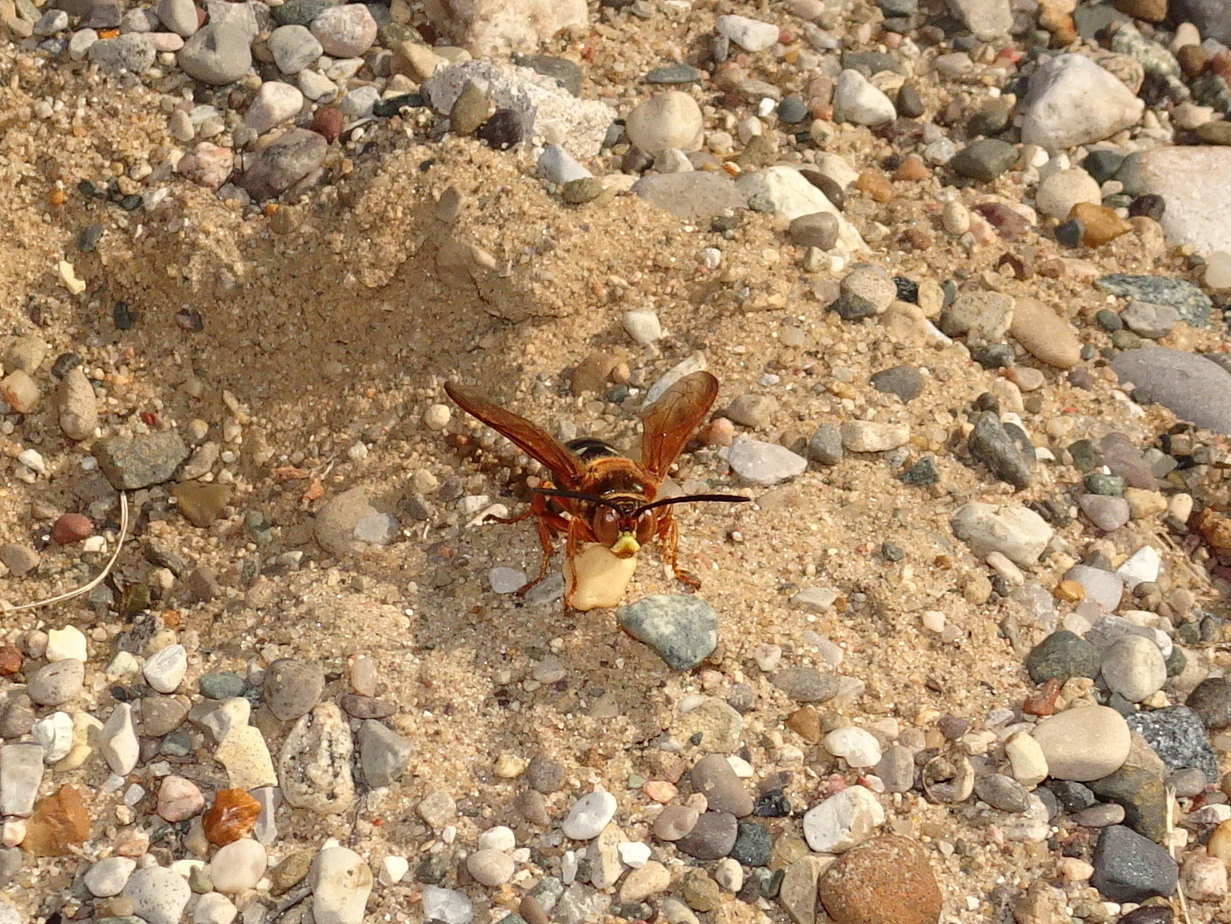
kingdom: Animalia
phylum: Arthropoda
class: Insecta
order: Hymenoptera
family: Crabronidae
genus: Sphecius
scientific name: Sphecius speciosus
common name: Cicada killer
